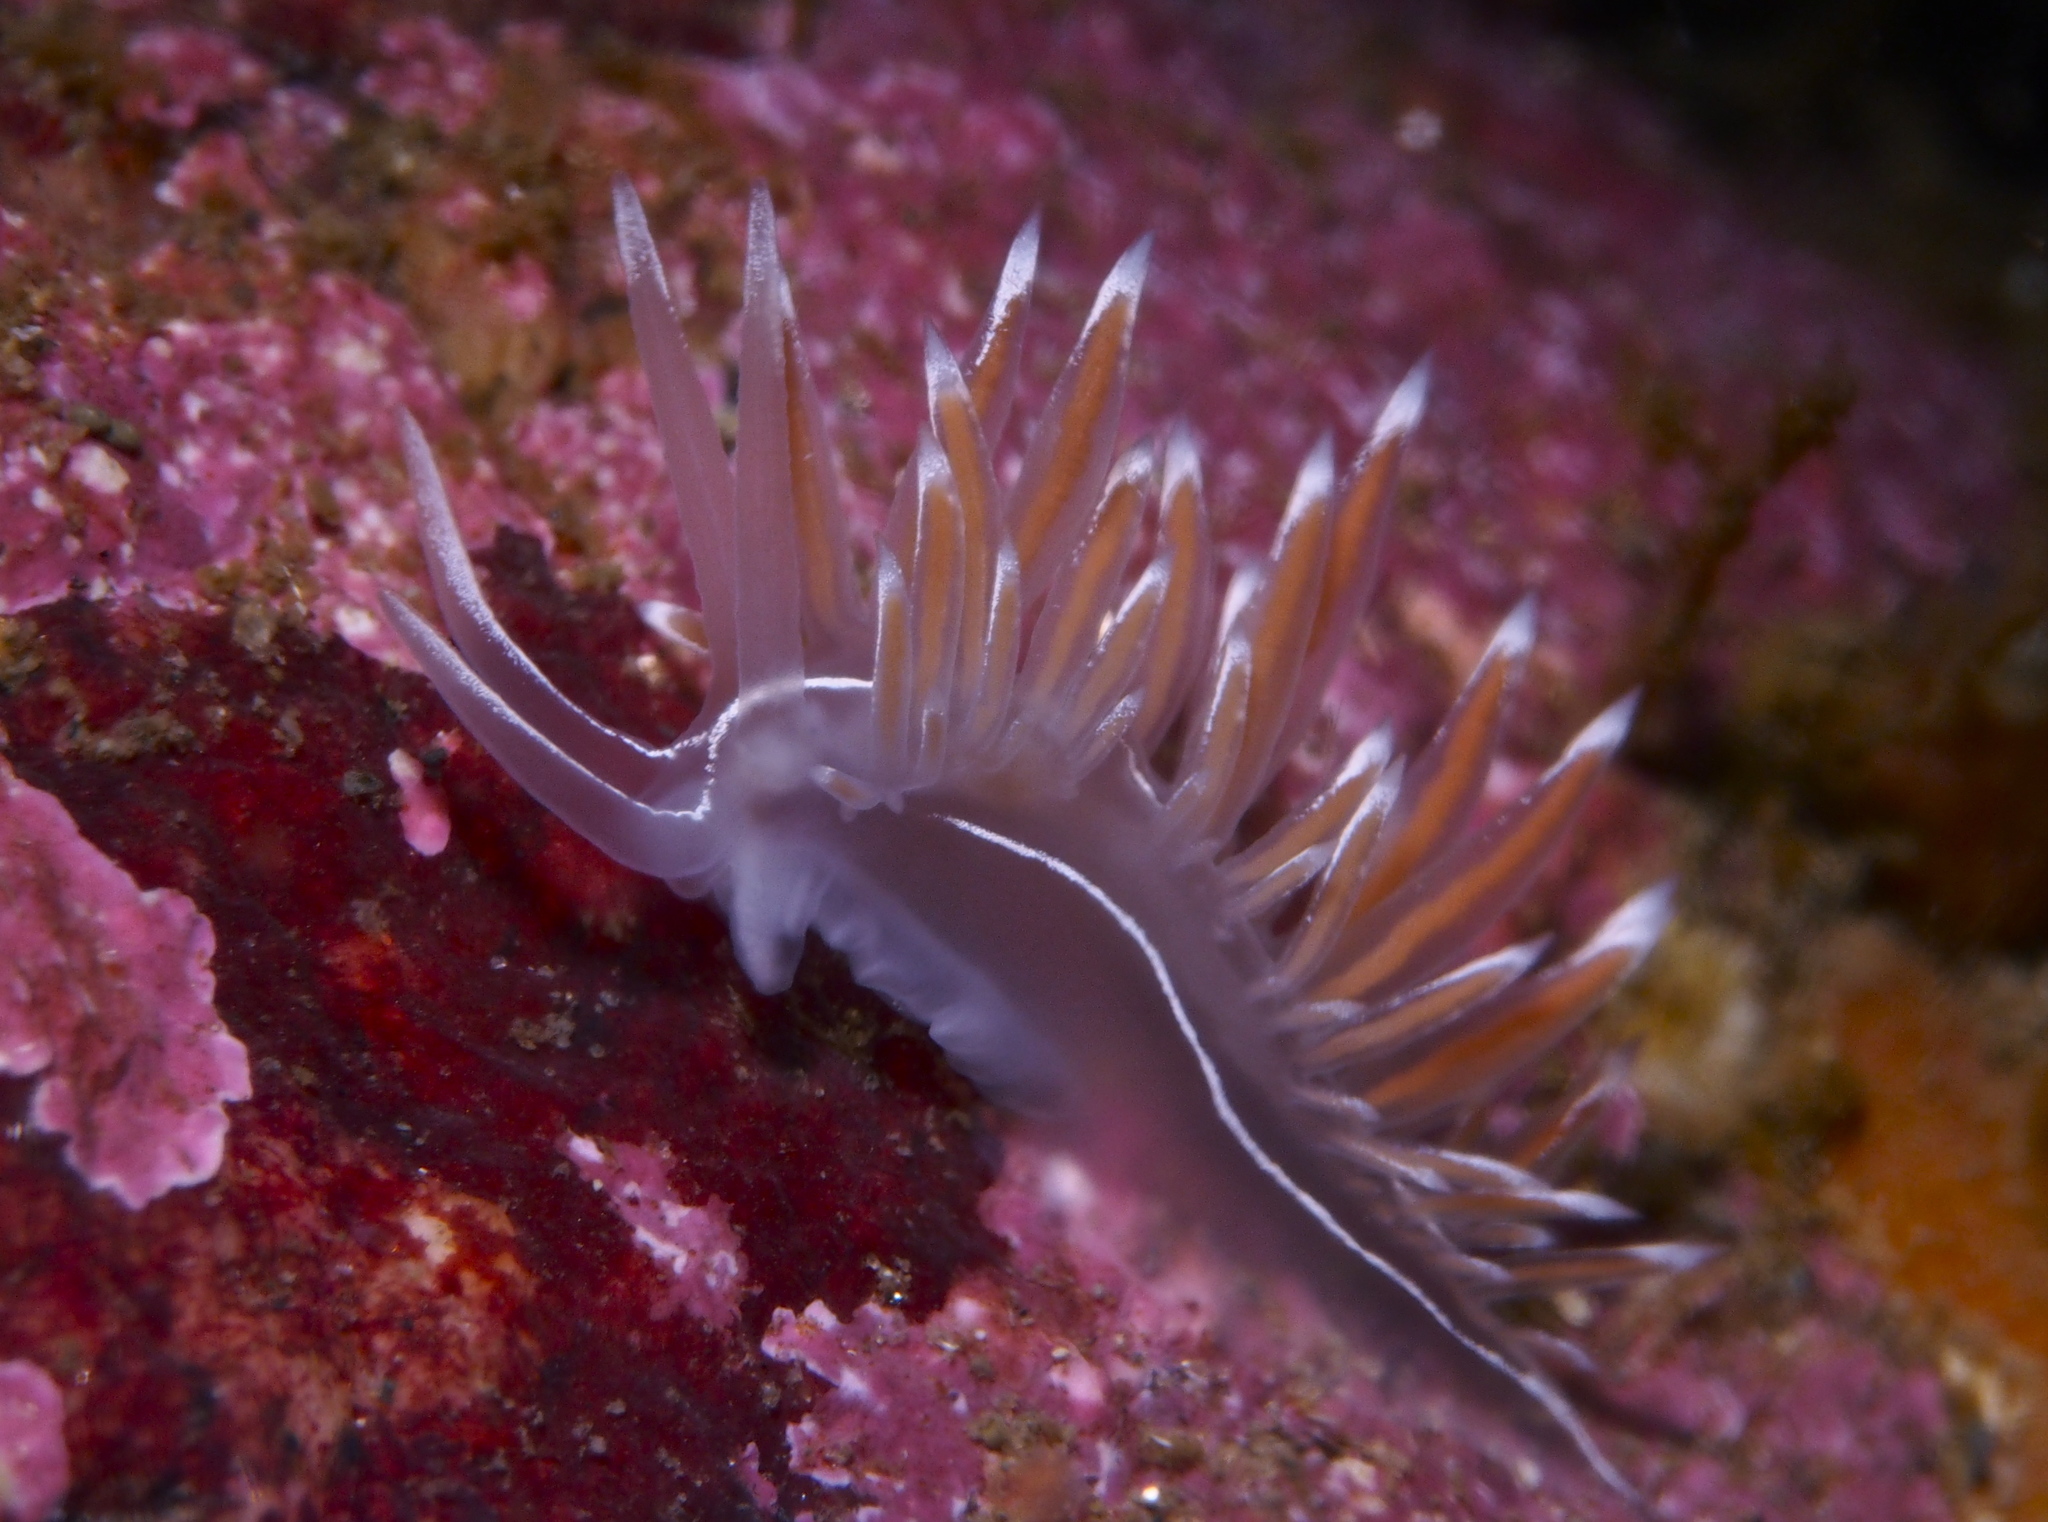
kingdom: Animalia
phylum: Mollusca
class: Gastropoda
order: Nudibranchia
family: Coryphellidae
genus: Coryphella
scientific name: Coryphella lineata
